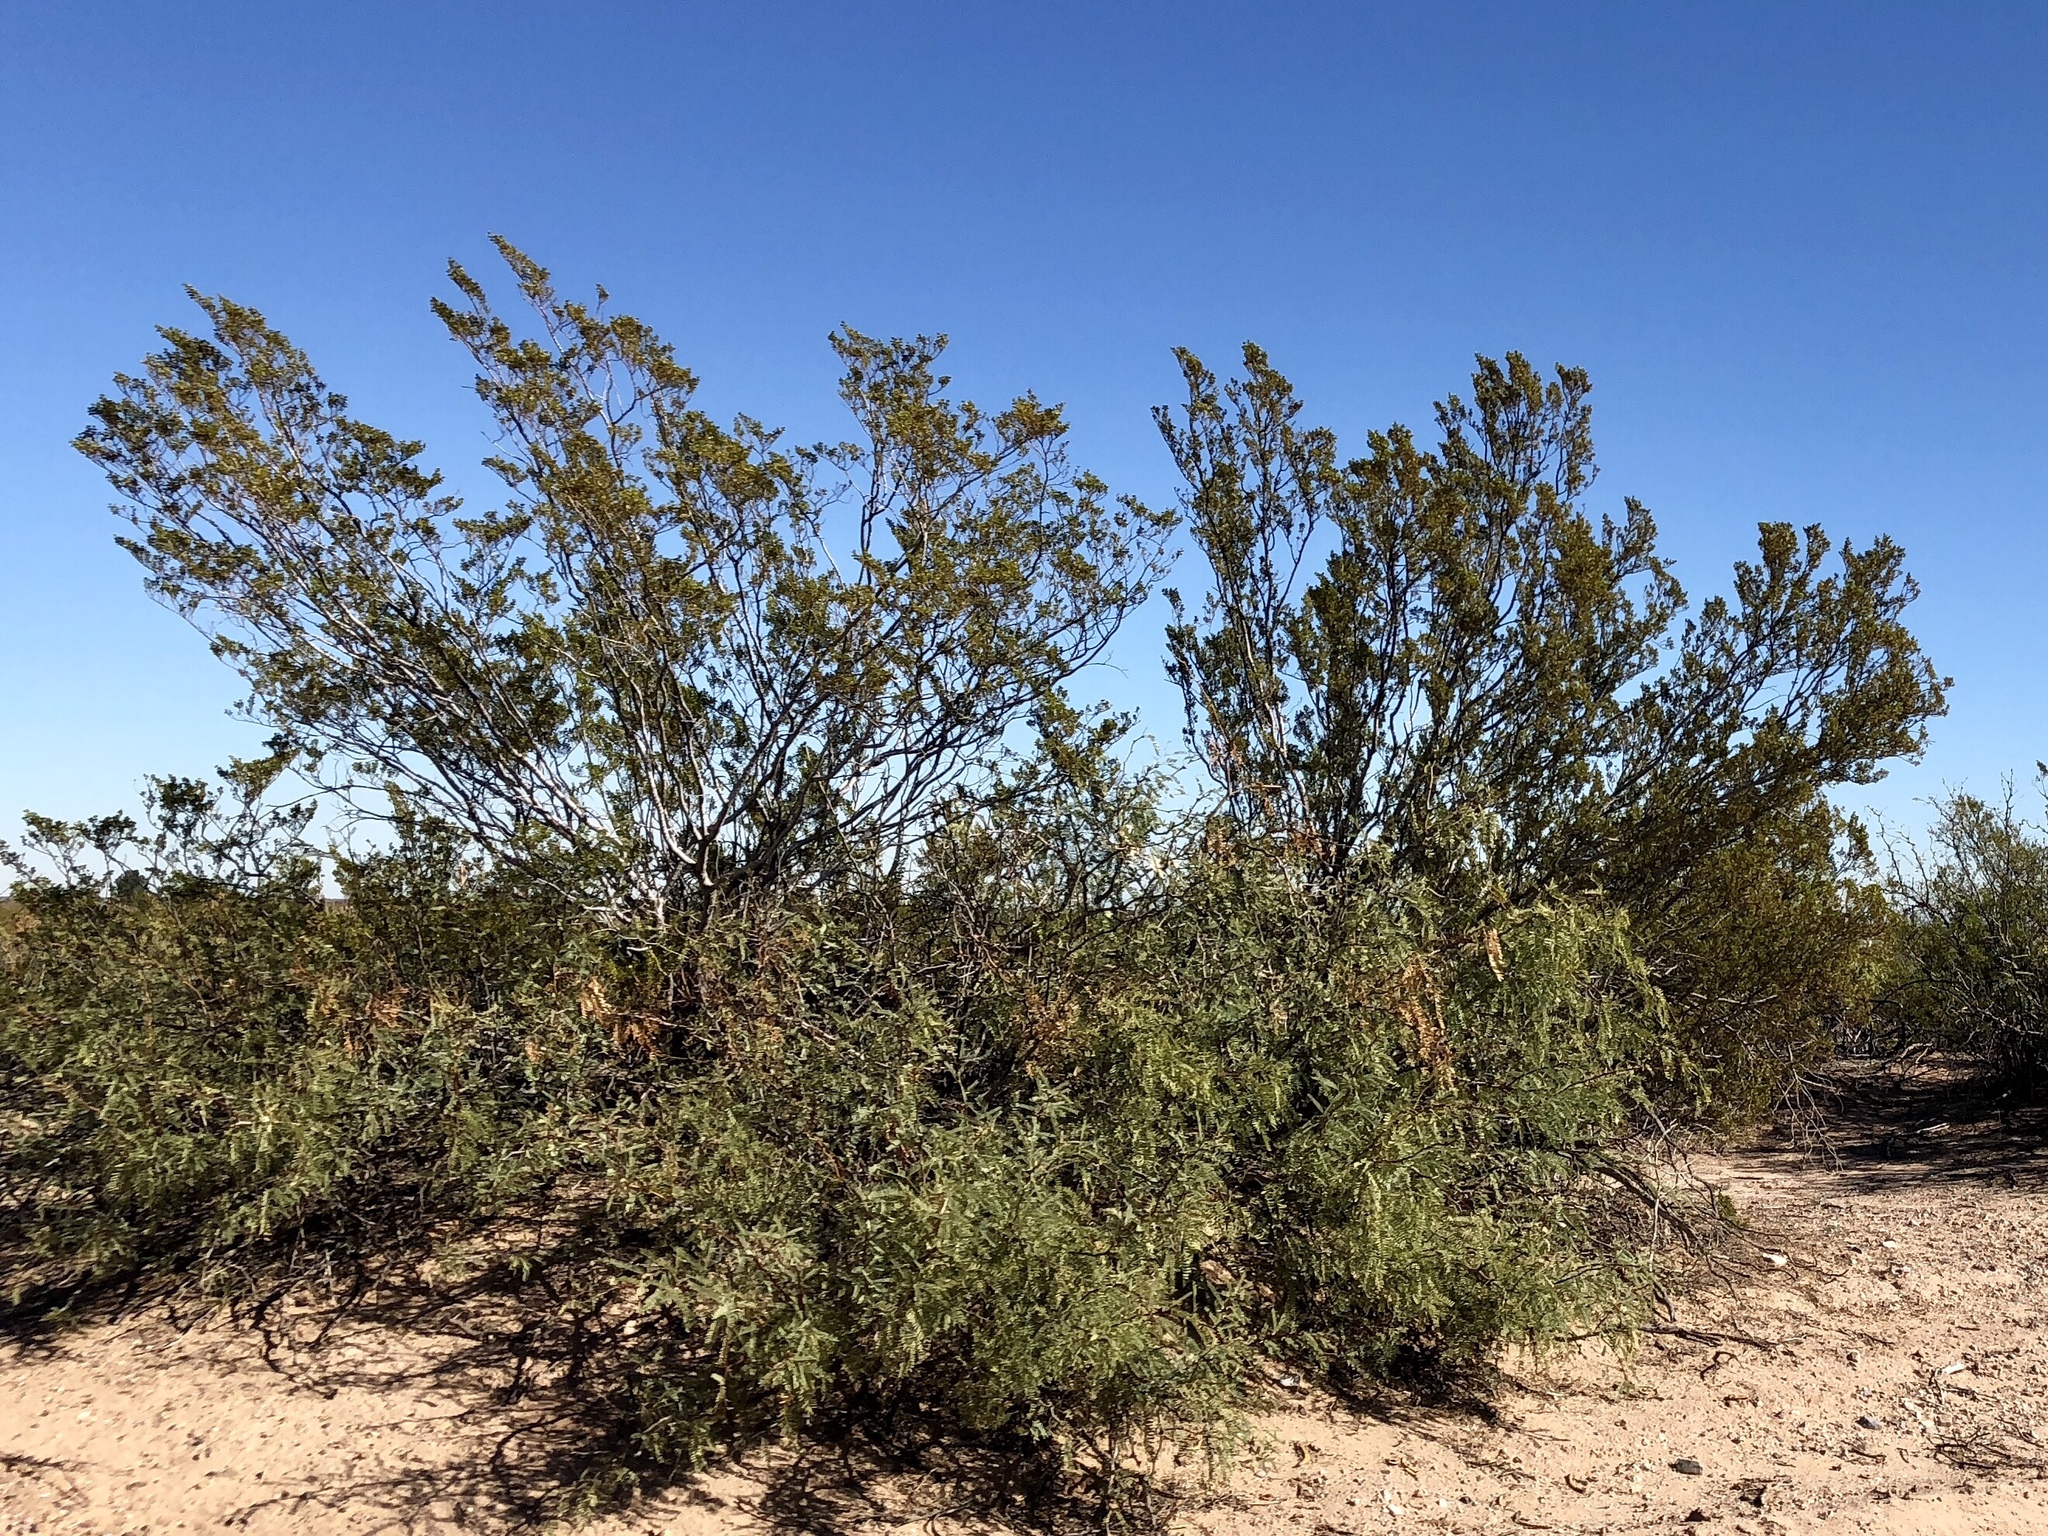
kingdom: Plantae
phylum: Tracheophyta
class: Magnoliopsida
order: Zygophyllales
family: Zygophyllaceae
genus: Larrea
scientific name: Larrea tridentata
